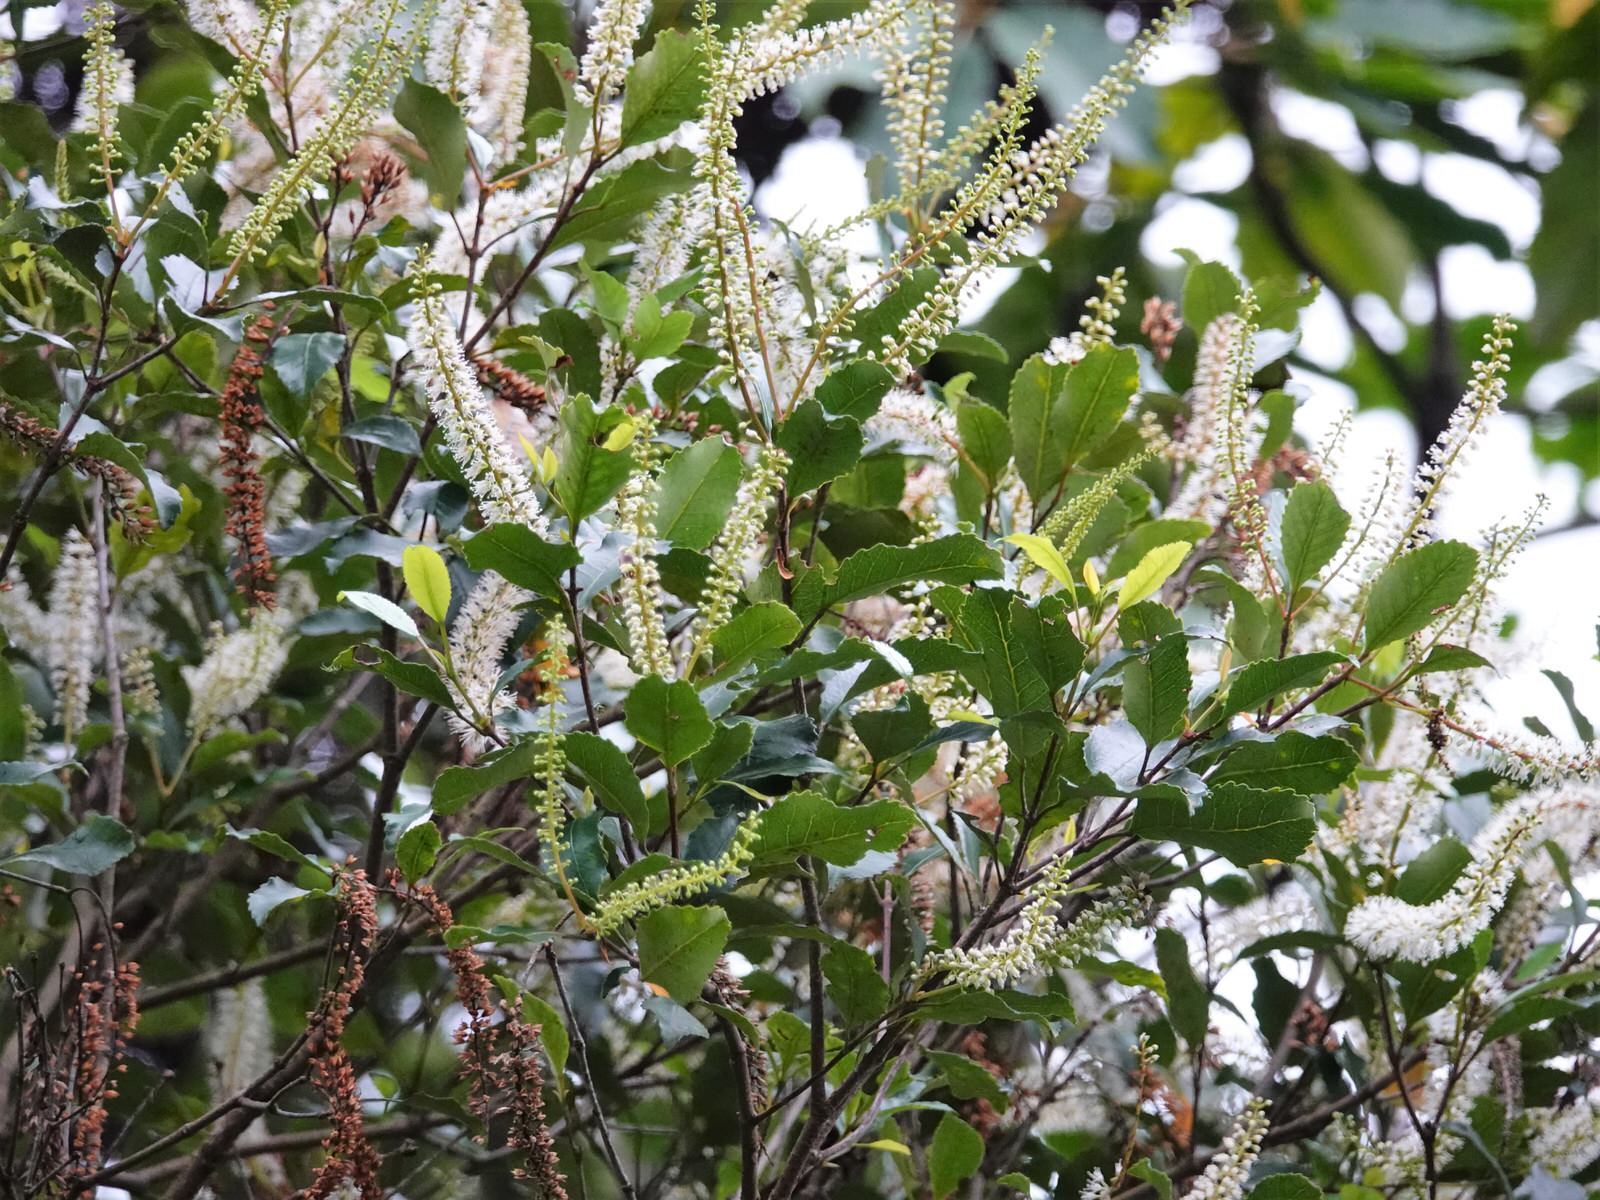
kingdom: Plantae
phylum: Tracheophyta
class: Magnoliopsida
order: Oxalidales
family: Cunoniaceae
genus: Pterophylla
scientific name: Pterophylla racemosa
